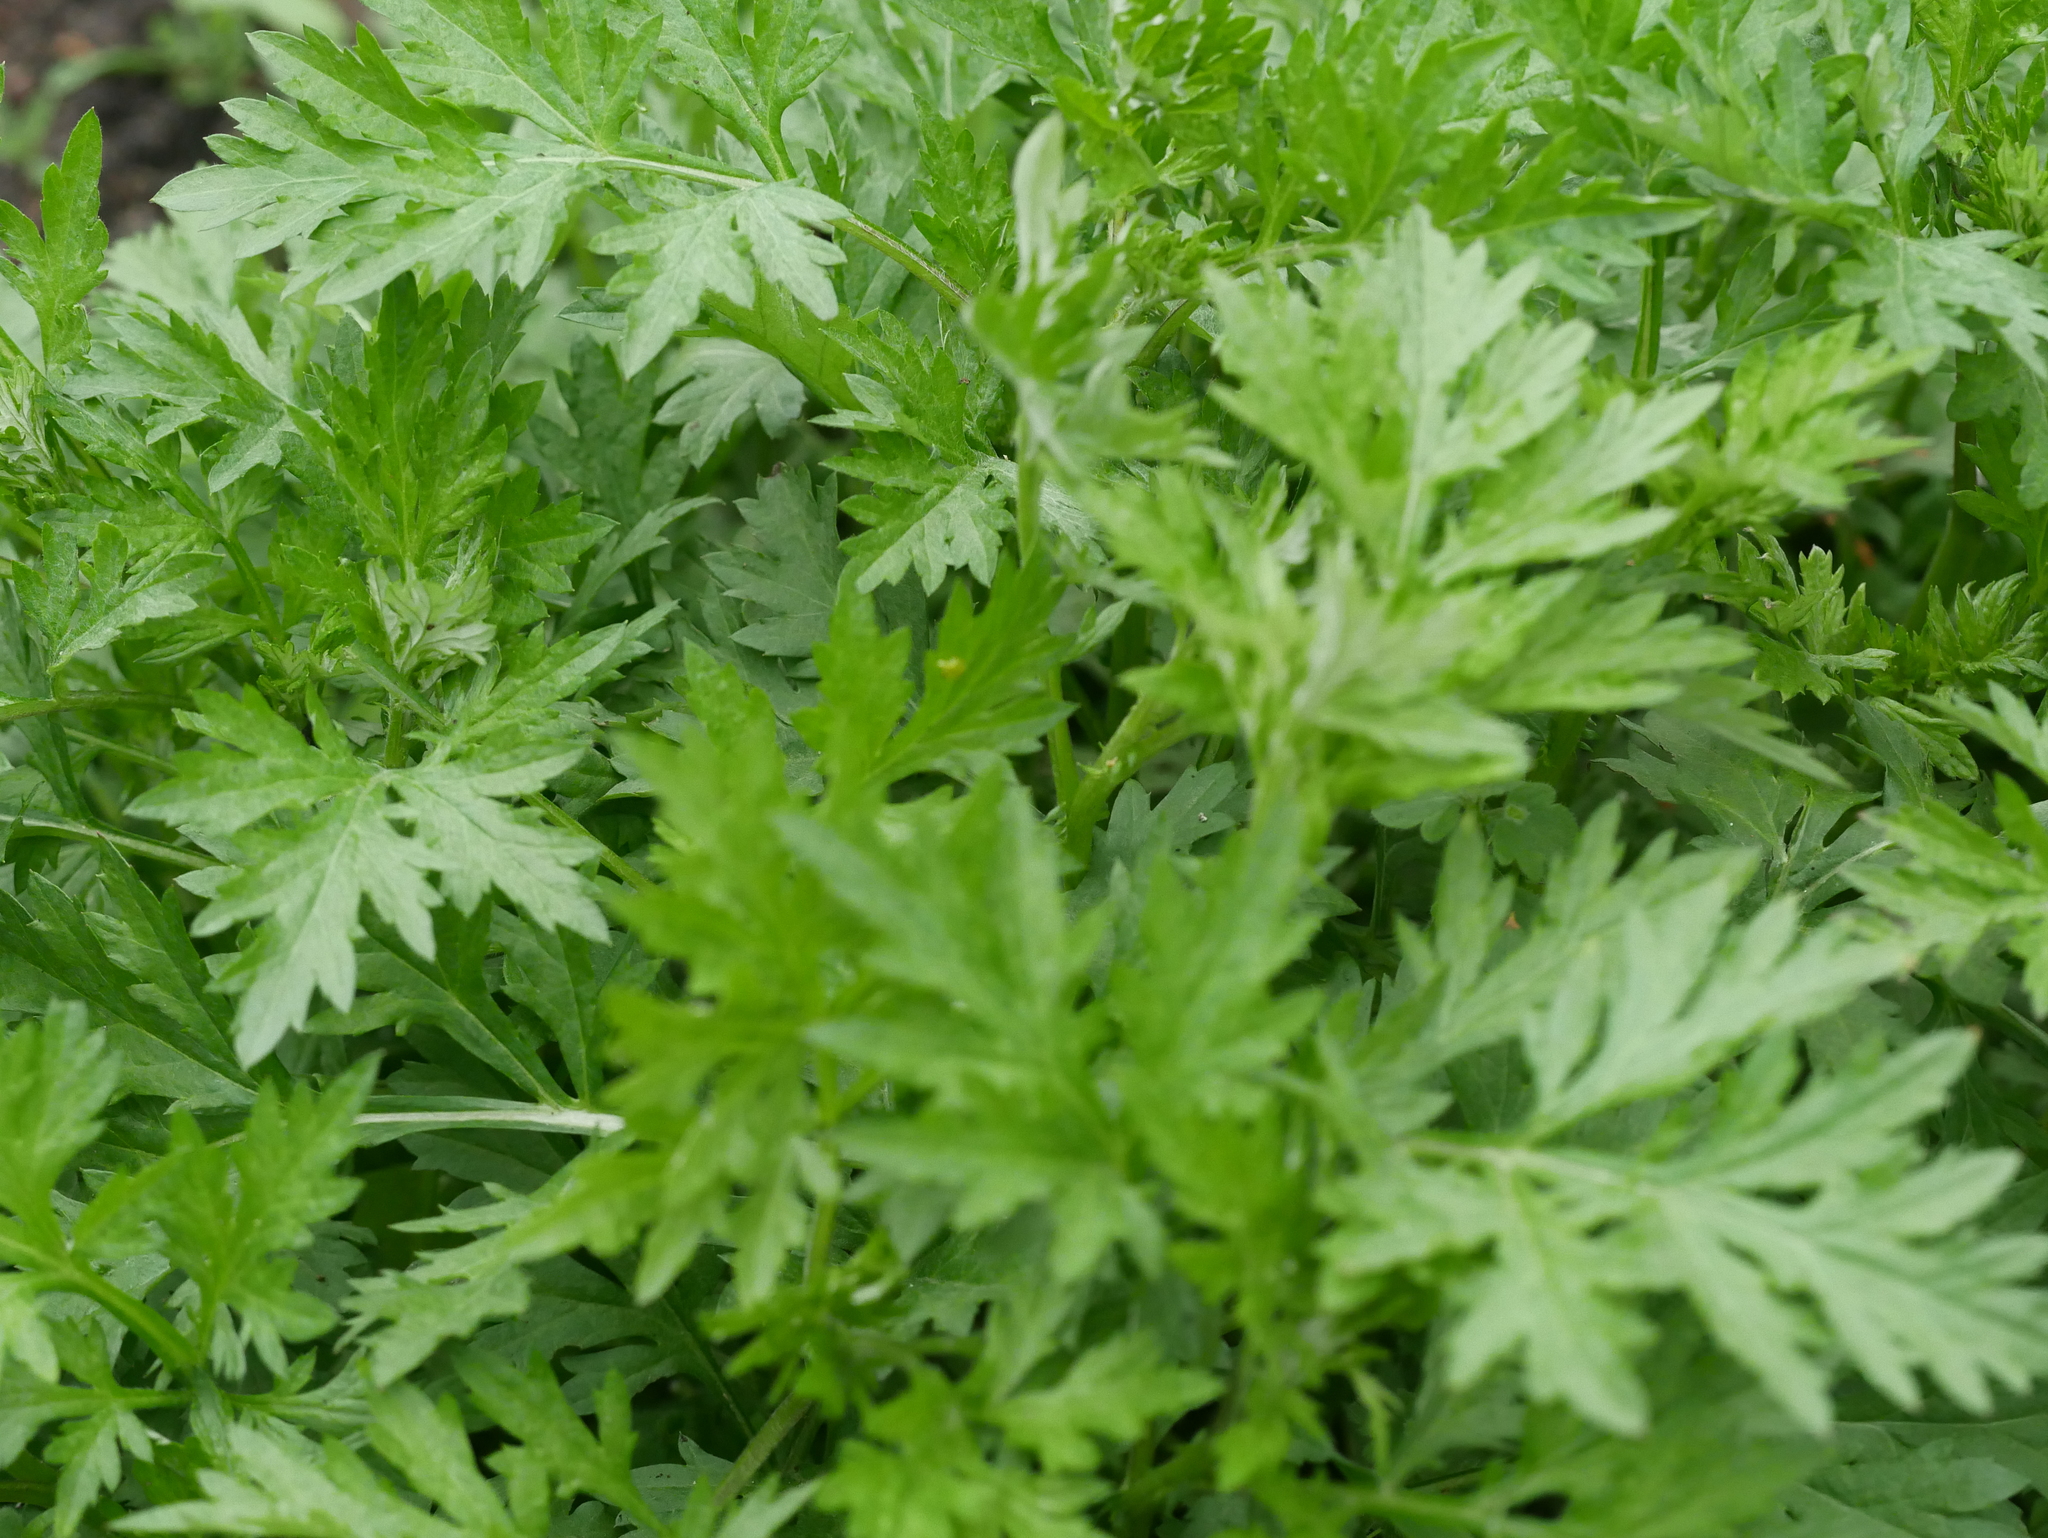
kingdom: Plantae
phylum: Tracheophyta
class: Magnoliopsida
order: Asterales
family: Asteraceae
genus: Artemisia
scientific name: Artemisia vulgaris
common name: Mugwort
